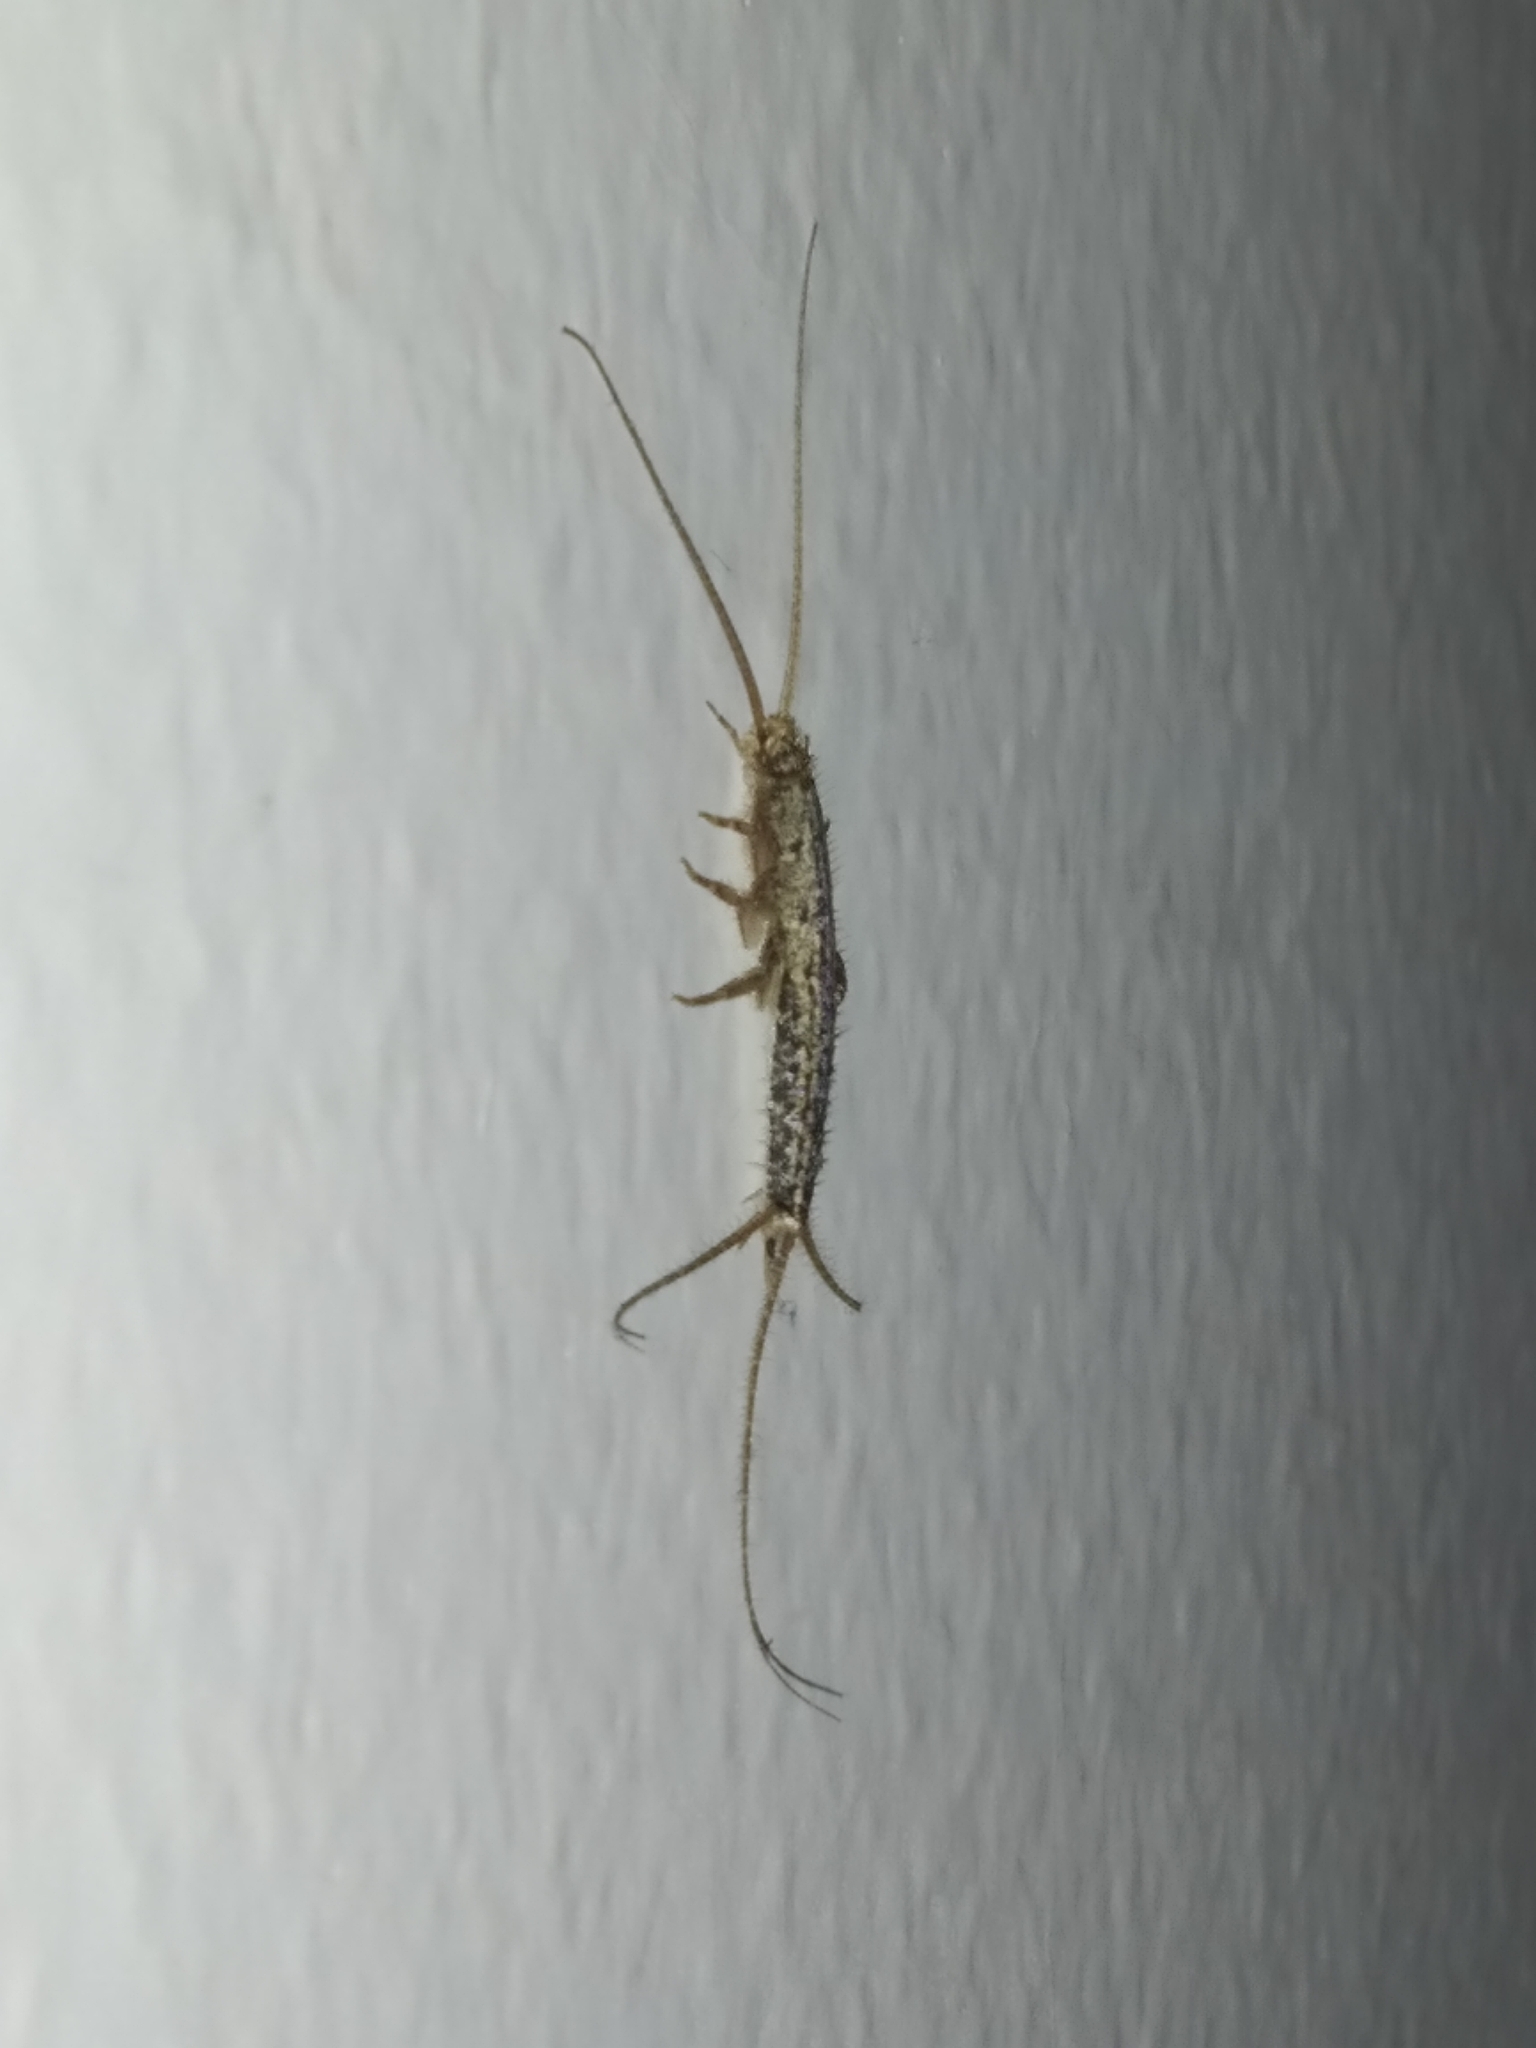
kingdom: Animalia
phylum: Arthropoda
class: Insecta
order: Zygentoma
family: Lepismatidae
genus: Ctenolepisma
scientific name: Ctenolepisma lineata
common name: Four-lined silverfish
